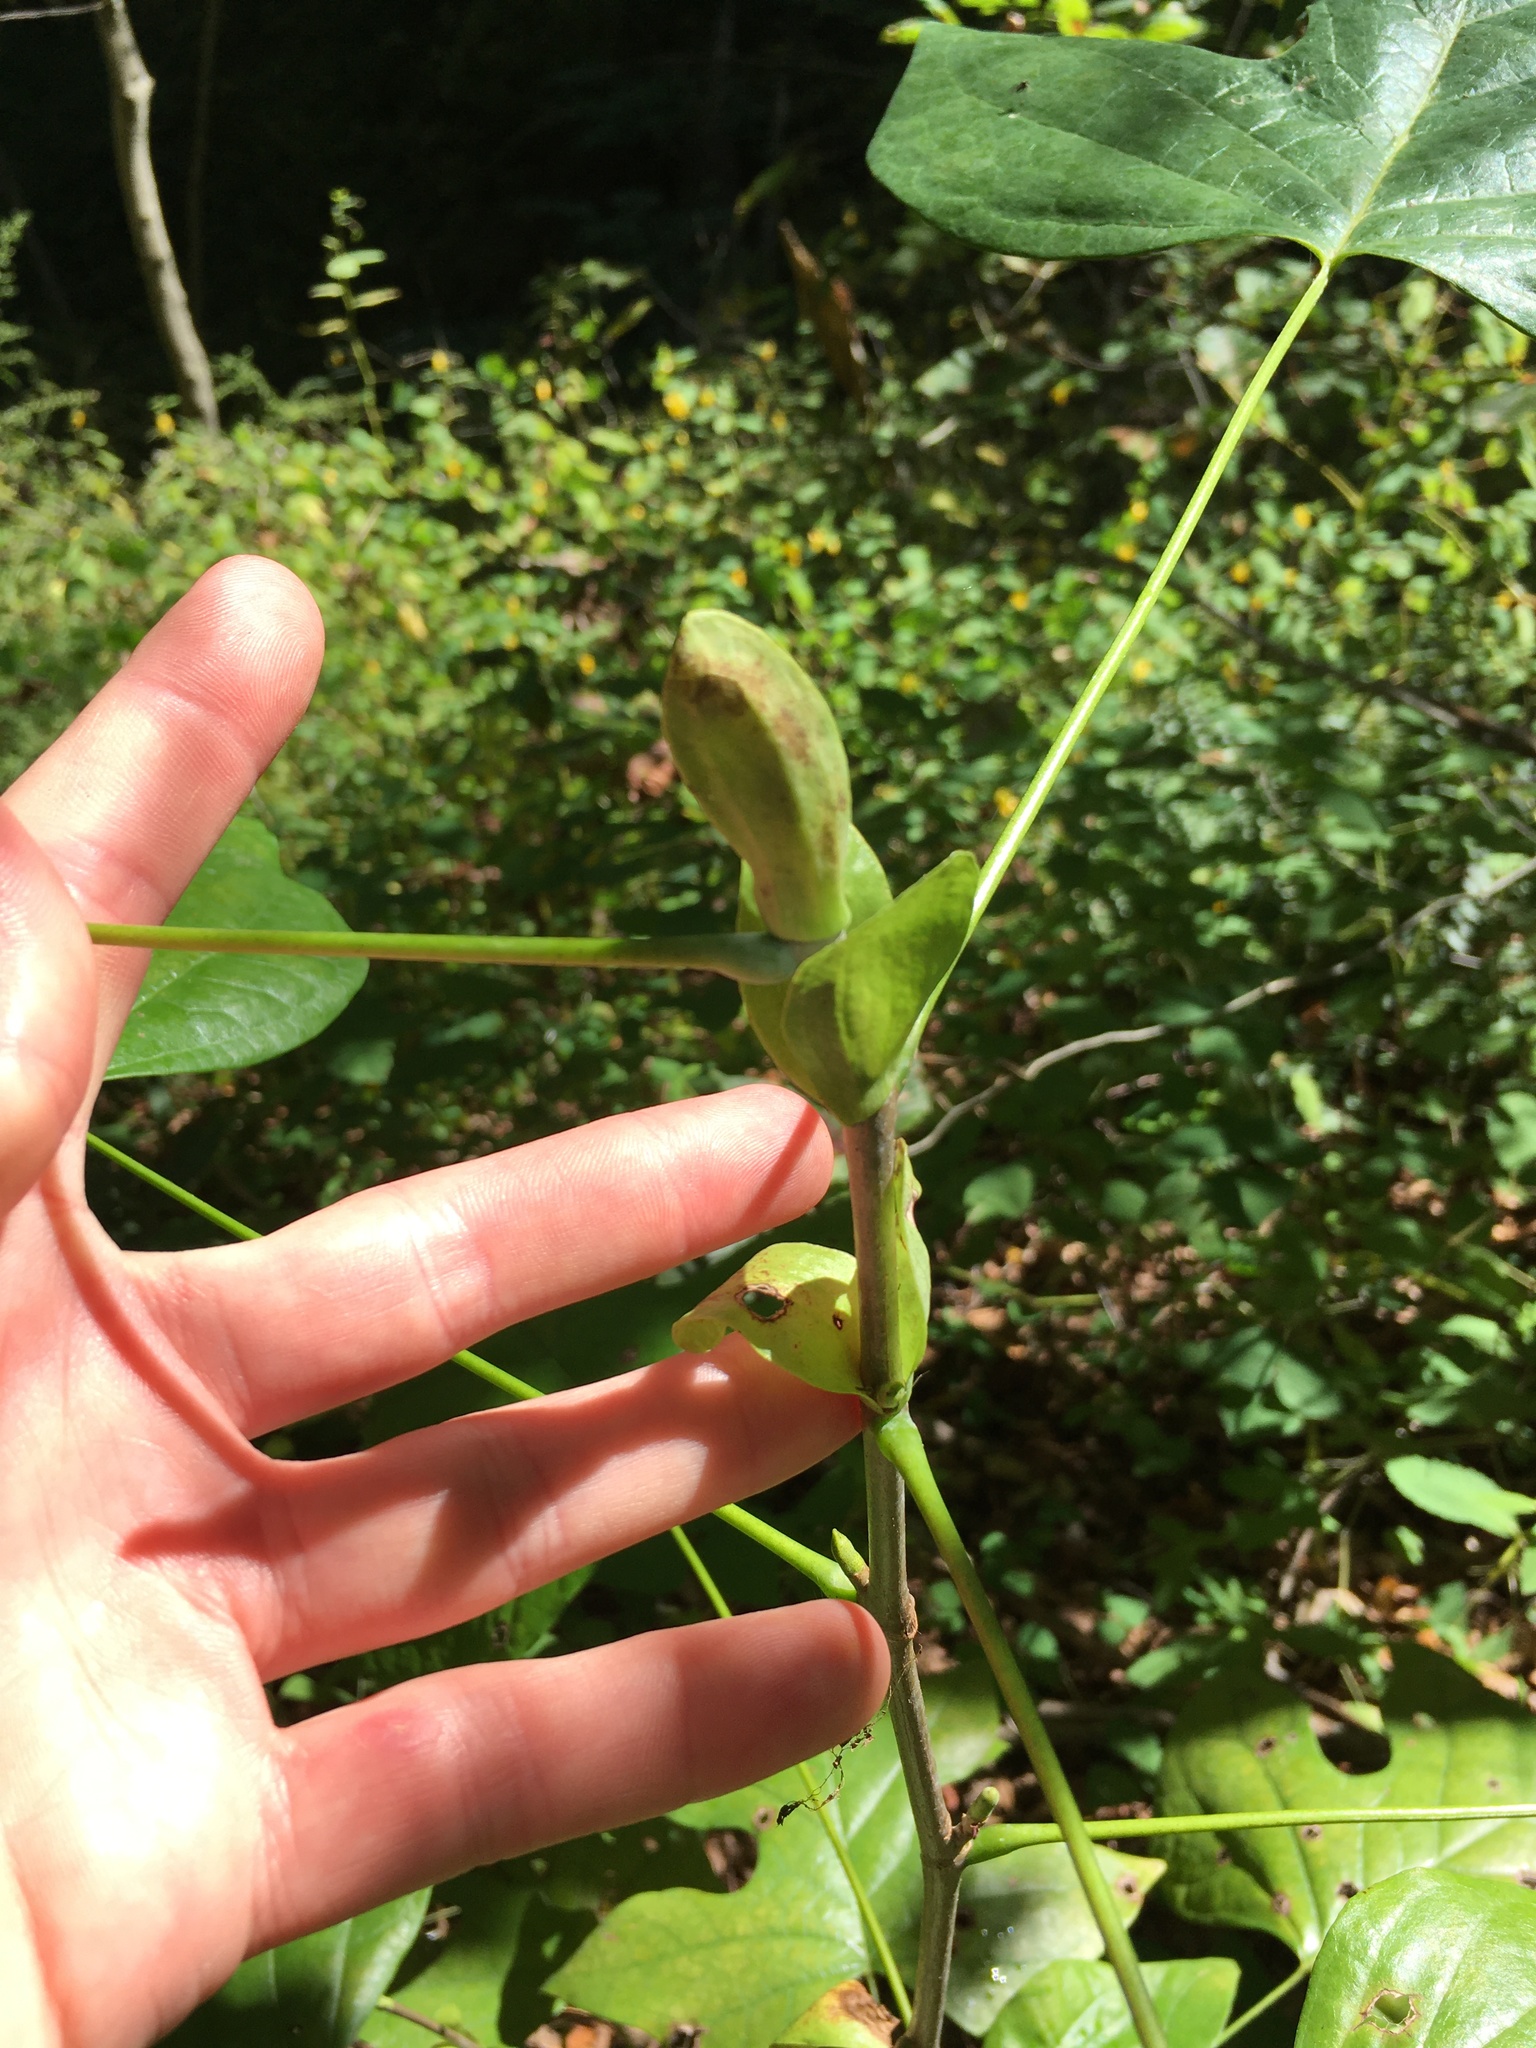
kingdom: Plantae
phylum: Tracheophyta
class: Magnoliopsida
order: Magnoliales
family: Magnoliaceae
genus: Liriodendron
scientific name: Liriodendron tulipifera
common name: Tulip tree
